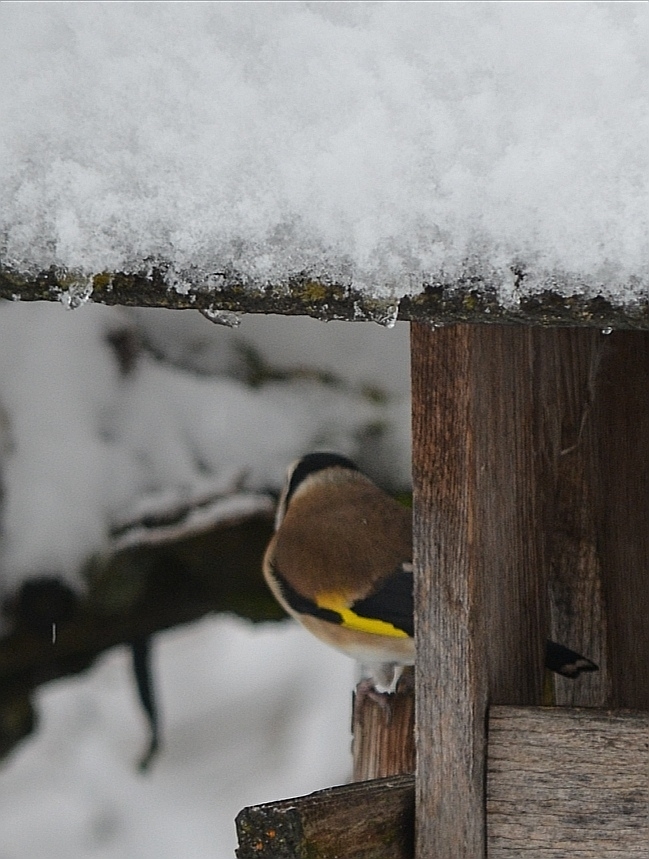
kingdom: Animalia
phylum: Chordata
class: Aves
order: Passeriformes
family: Fringillidae
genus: Carduelis
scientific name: Carduelis carduelis
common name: European goldfinch
